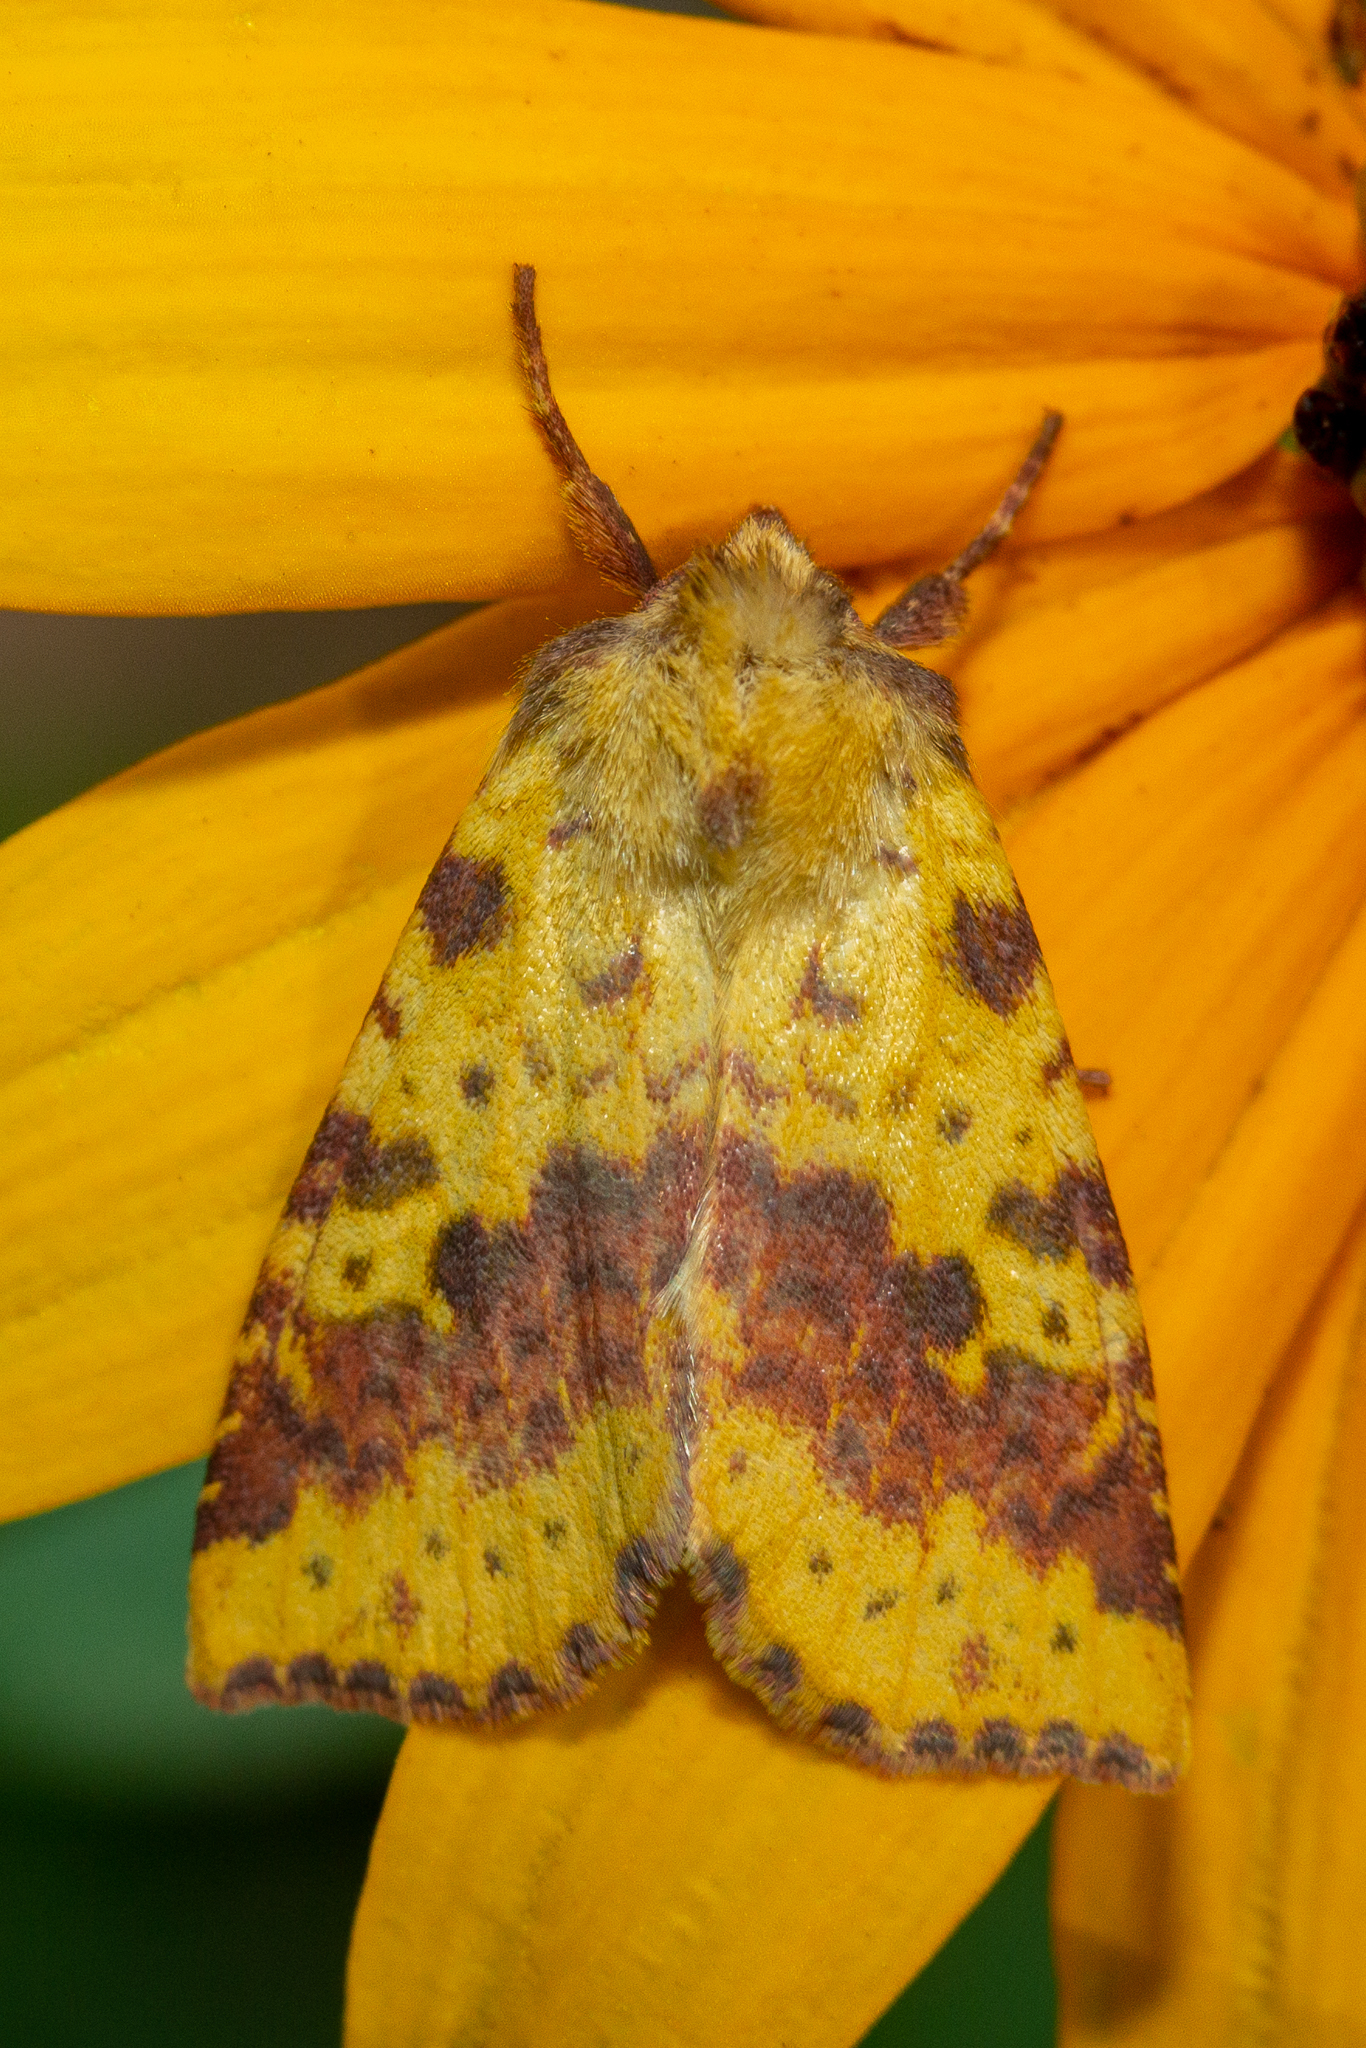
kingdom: Animalia
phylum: Arthropoda
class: Insecta
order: Lepidoptera
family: Noctuidae
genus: Xanthia
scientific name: Xanthia tatago
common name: Pink-banded sallow
